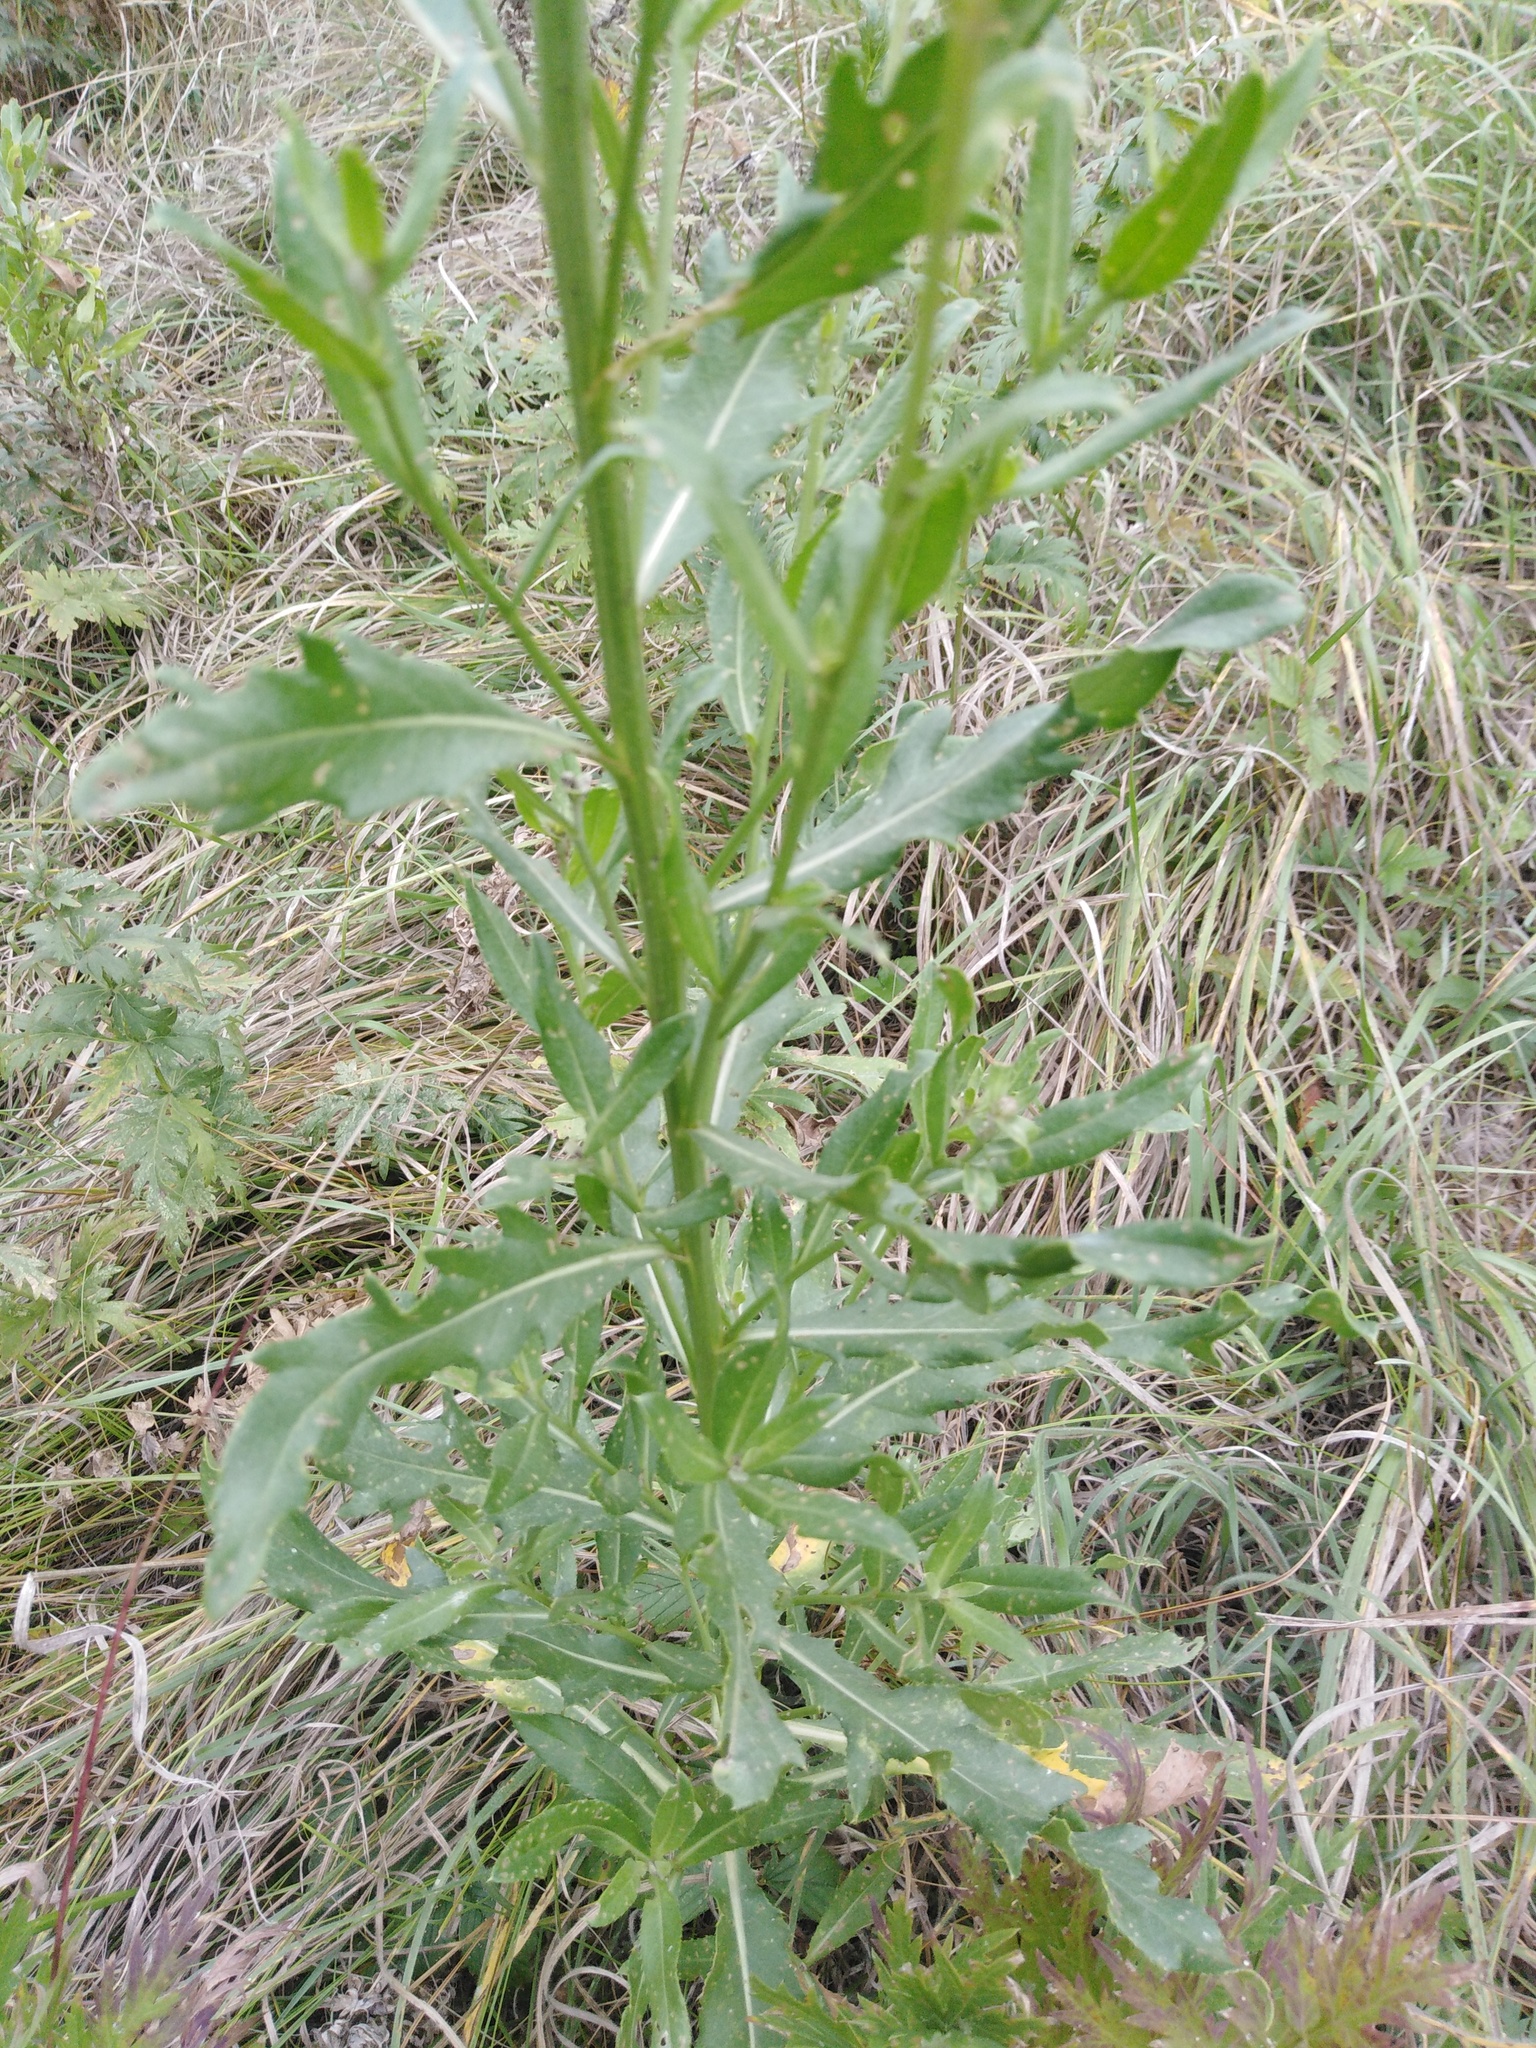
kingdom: Plantae
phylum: Tracheophyta
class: Magnoliopsida
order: Asterales
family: Asteraceae
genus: Cirsium
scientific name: Cirsium arvense
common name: Creeping thistle
